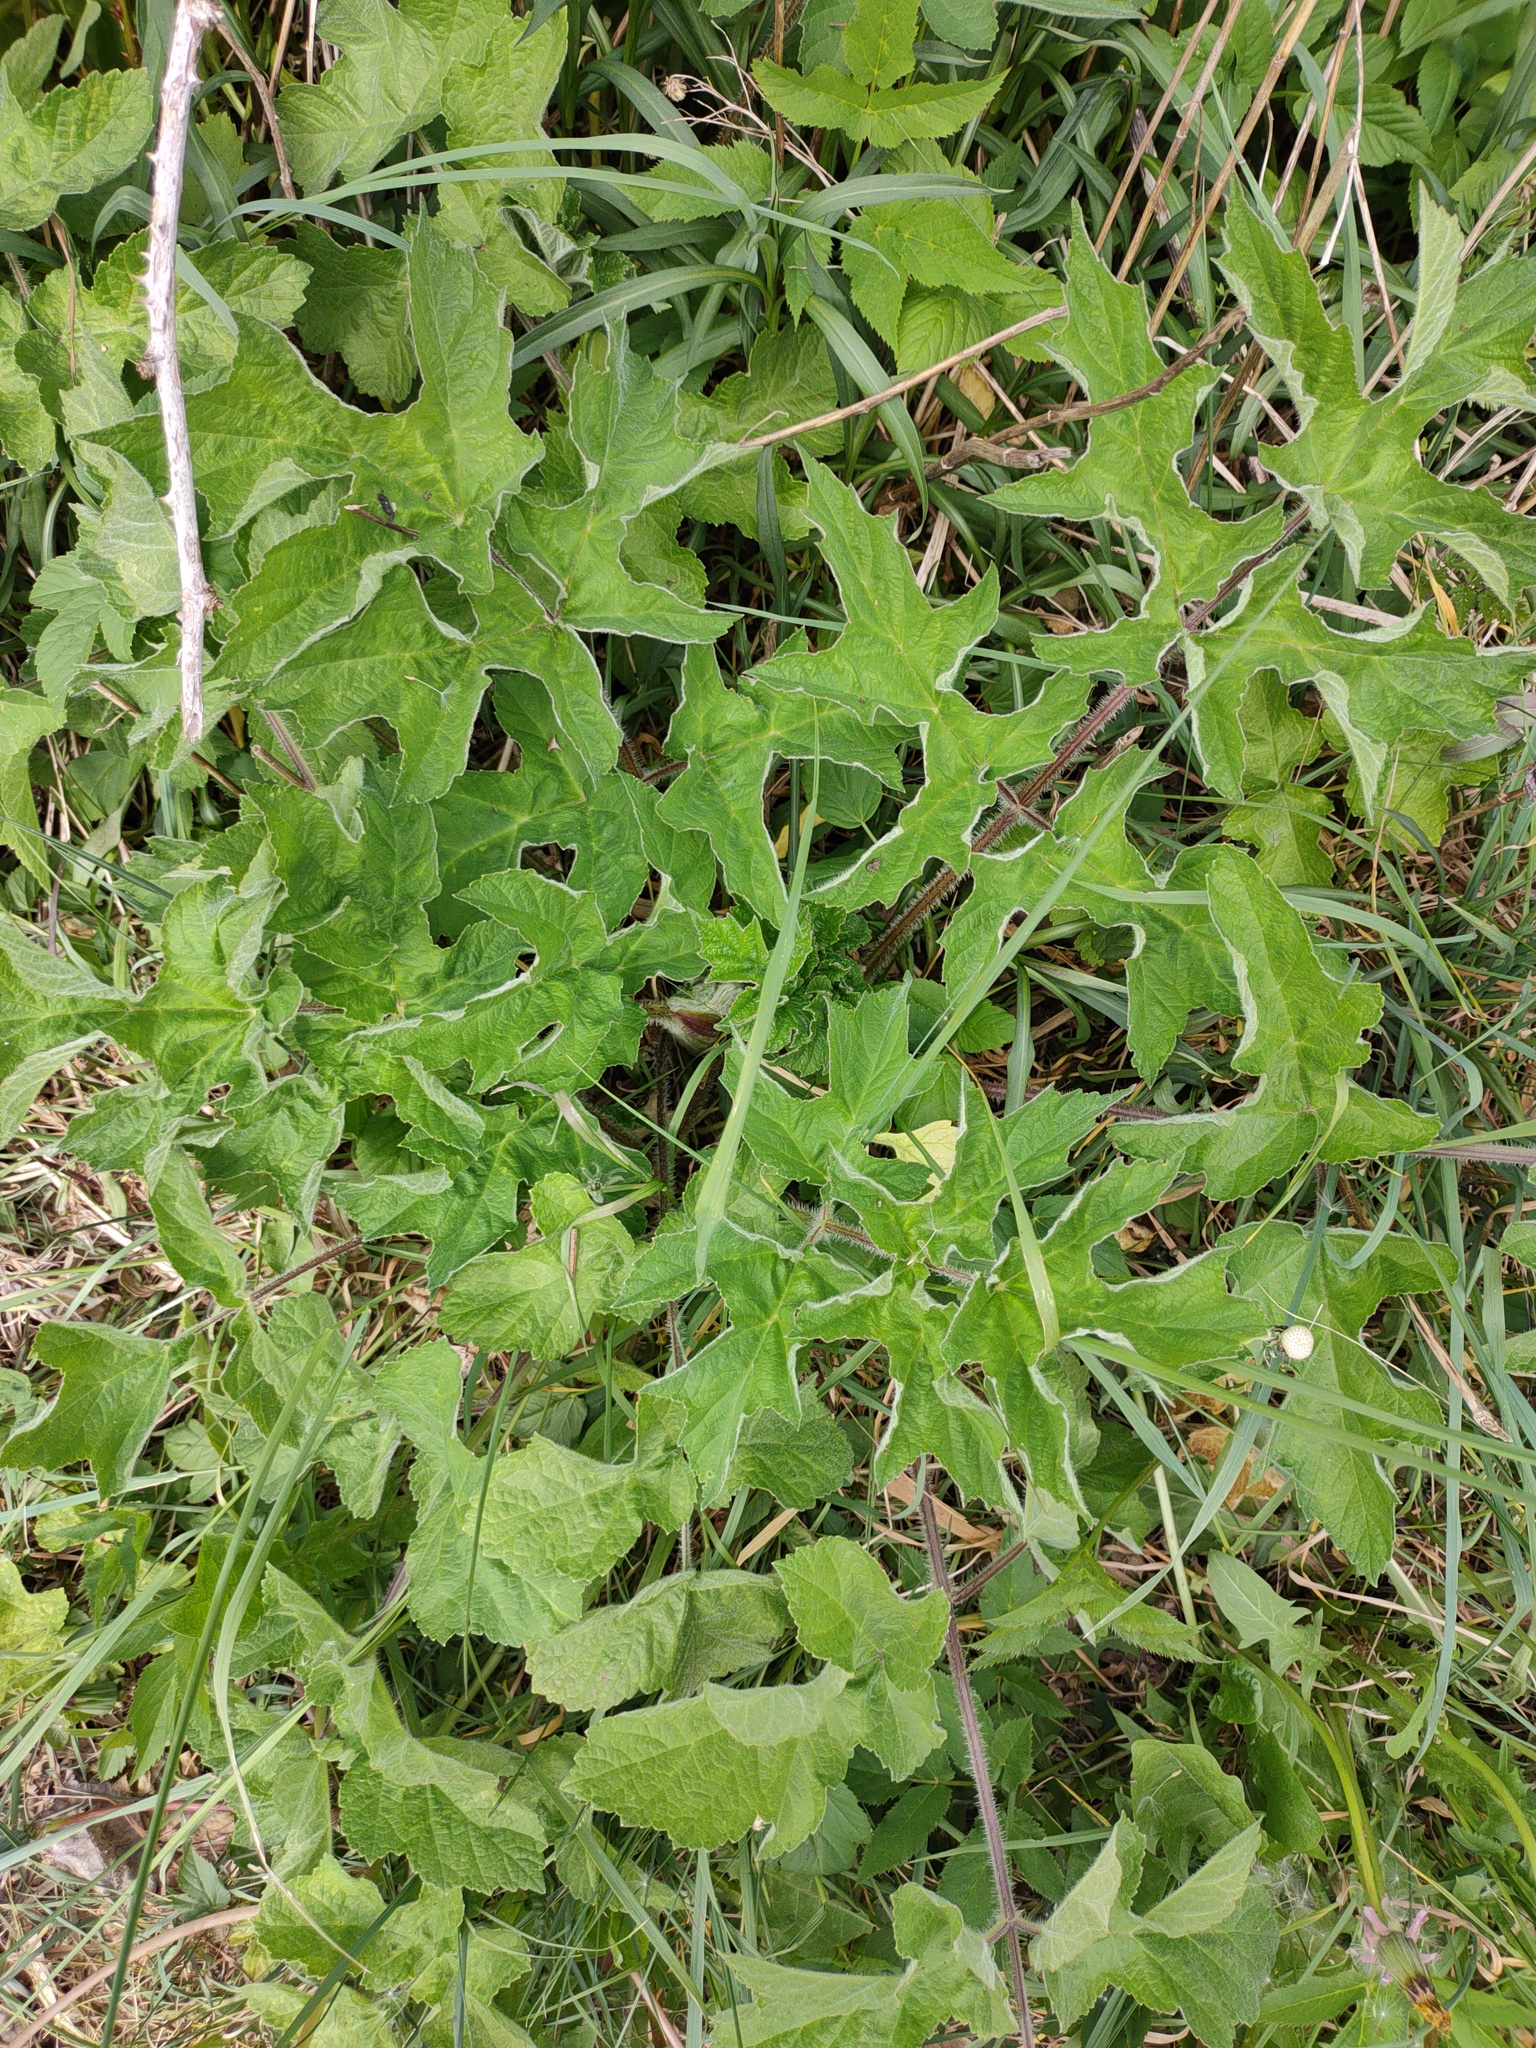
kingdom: Plantae
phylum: Tracheophyta
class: Magnoliopsida
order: Apiales
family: Apiaceae
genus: Heracleum
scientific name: Heracleum sphondylium
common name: Hogweed
